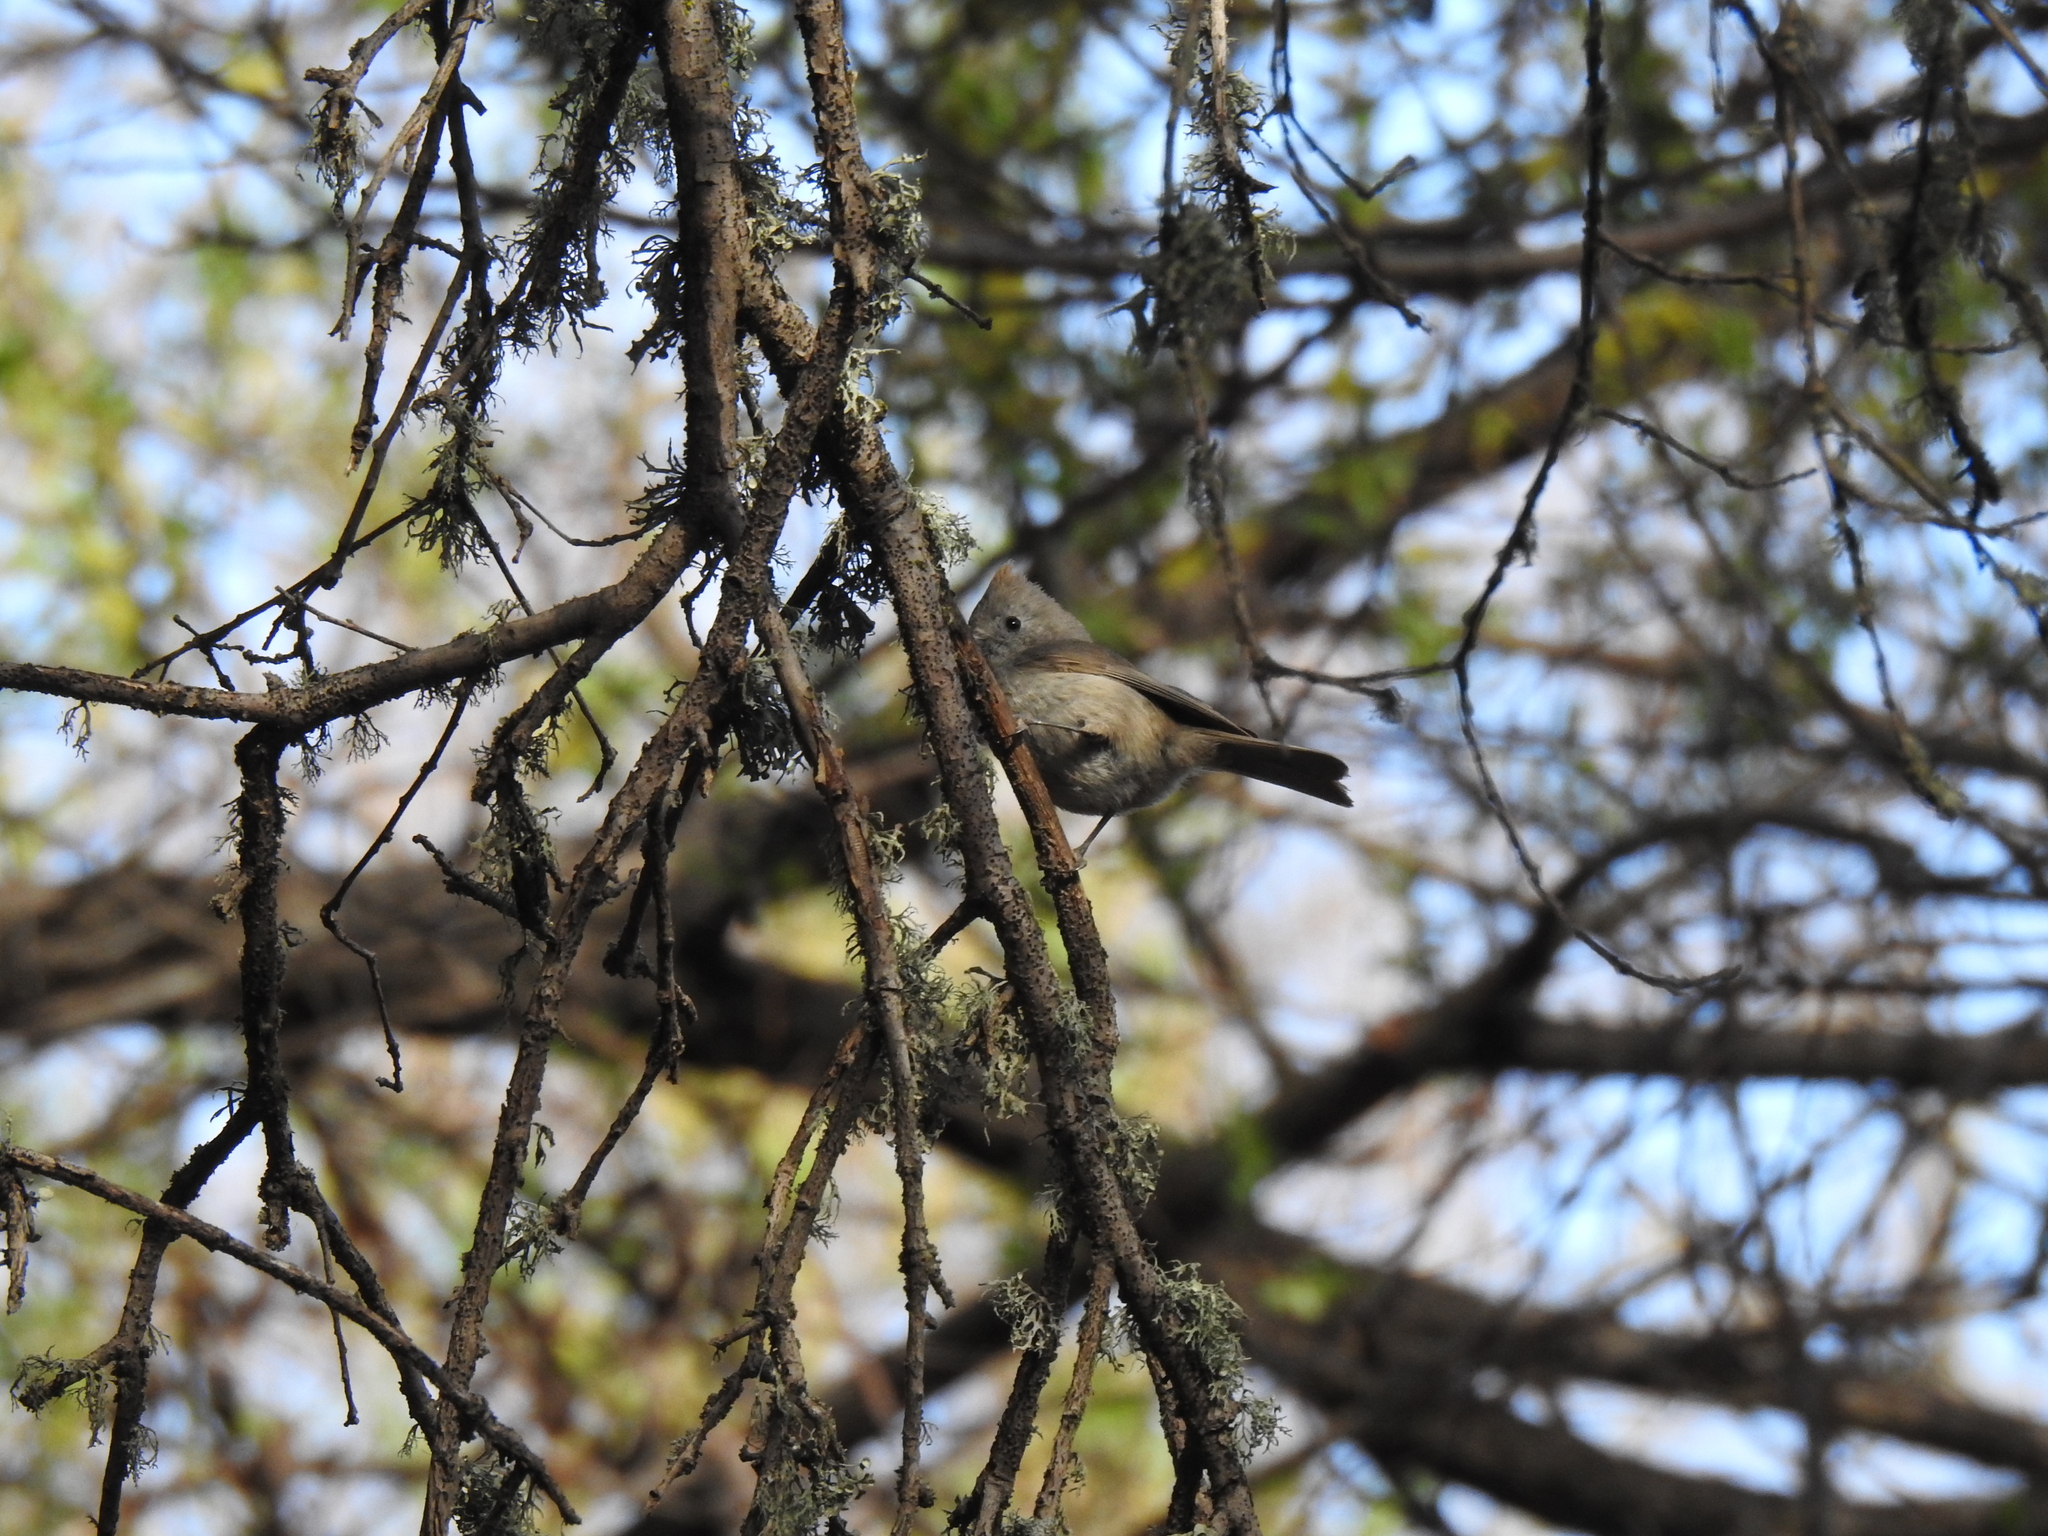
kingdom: Animalia
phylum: Chordata
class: Aves
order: Passeriformes
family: Paridae
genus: Baeolophus
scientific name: Baeolophus inornatus
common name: Oak titmouse
